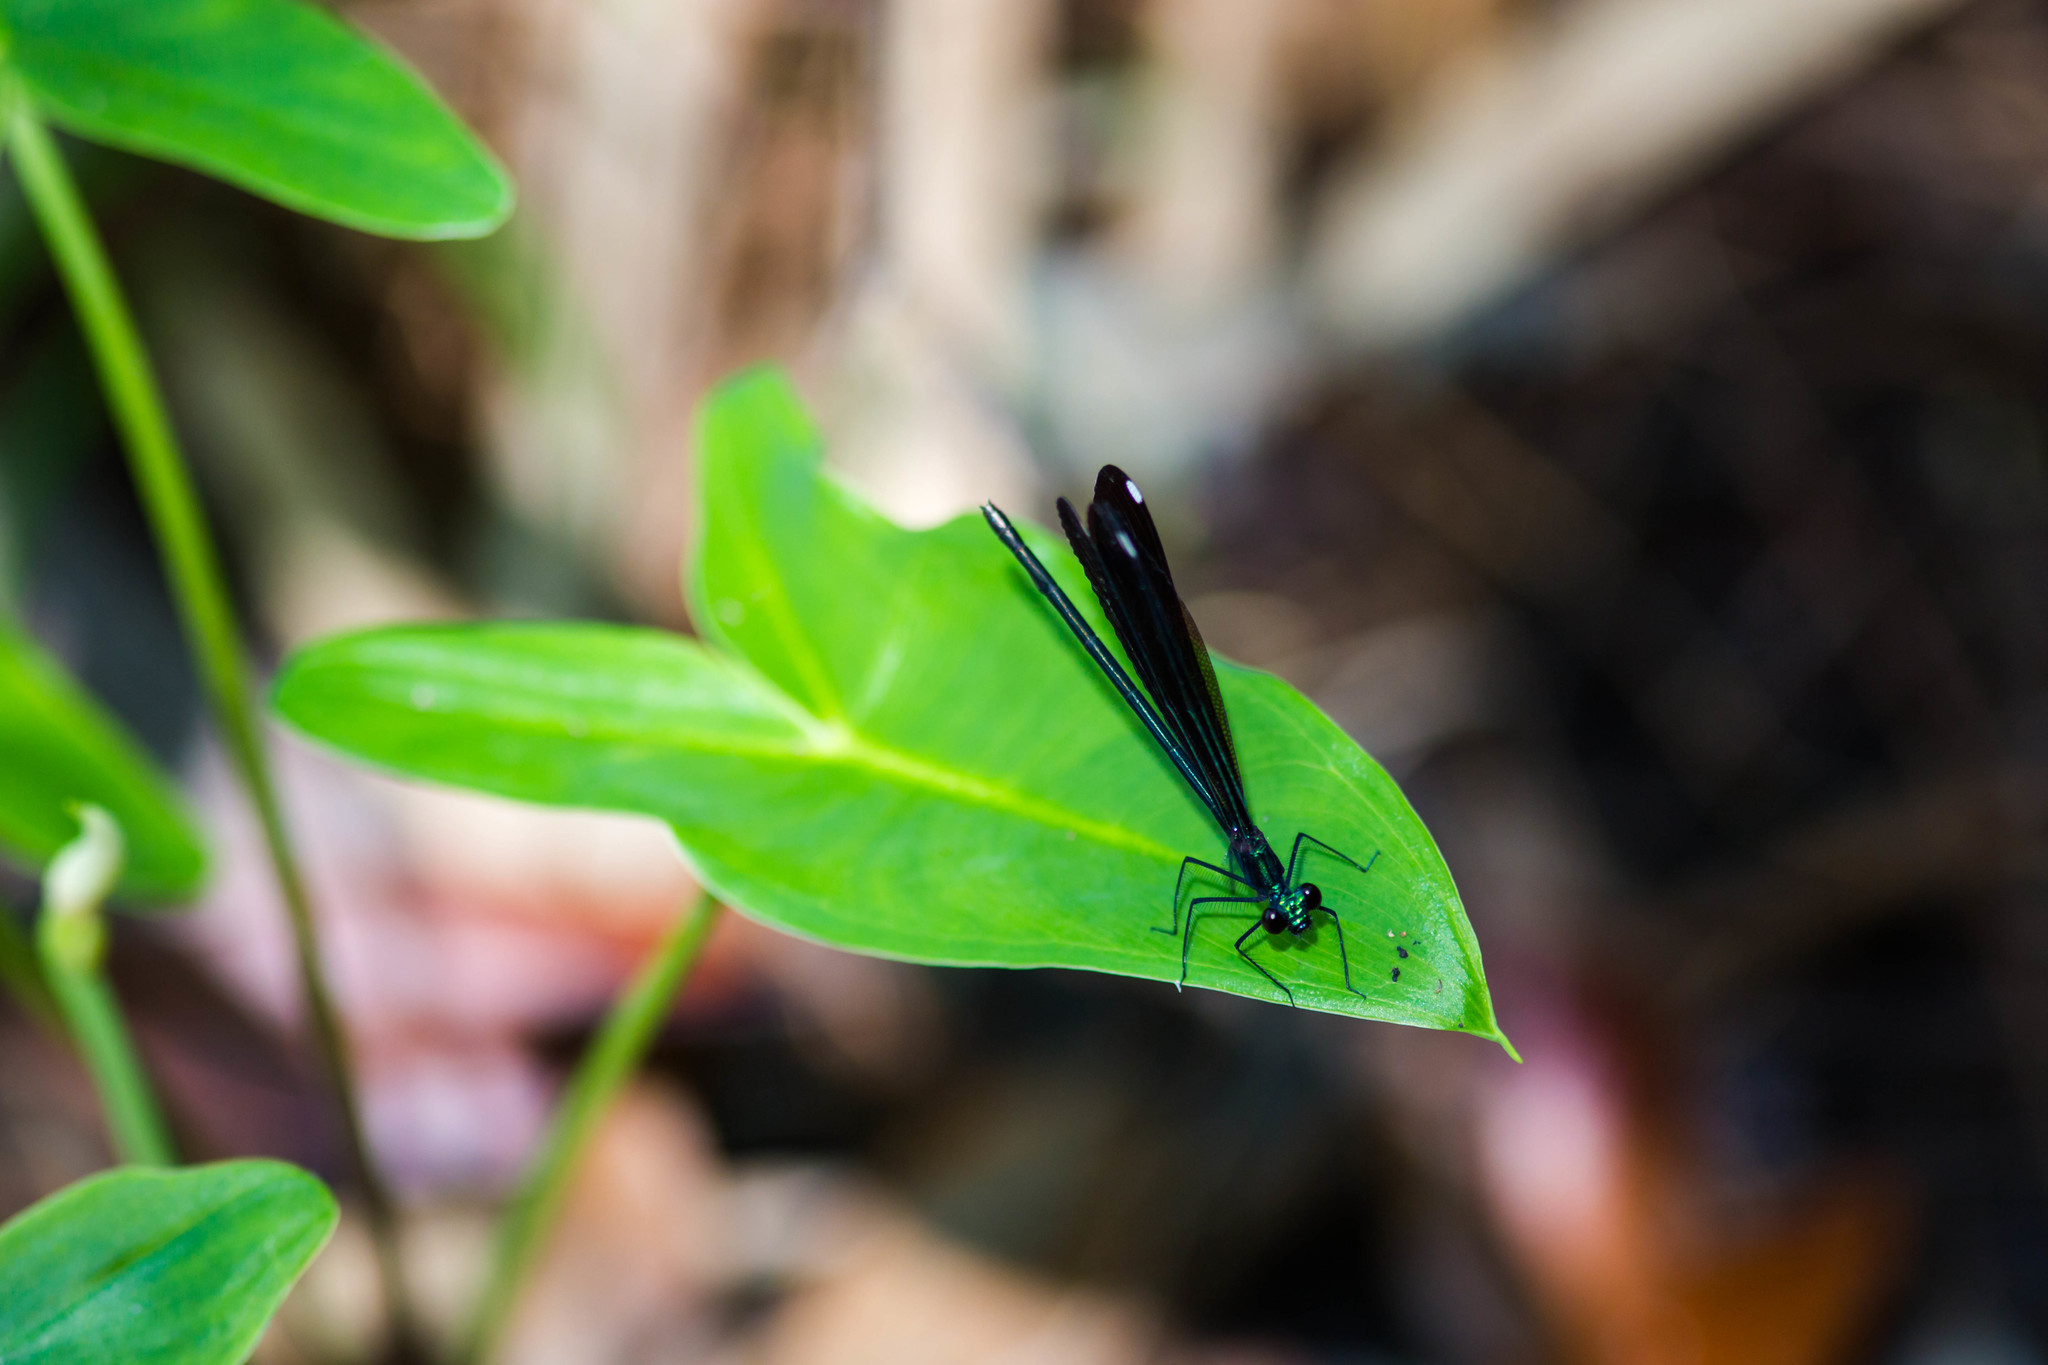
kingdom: Animalia
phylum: Arthropoda
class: Insecta
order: Odonata
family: Calopterygidae
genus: Calopteryx
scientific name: Calopteryx maculata
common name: Ebony jewelwing
